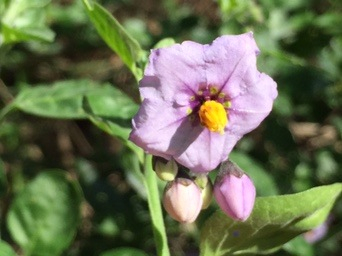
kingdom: Plantae
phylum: Tracheophyta
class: Magnoliopsida
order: Solanales
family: Solanaceae
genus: Solanum
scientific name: Solanum umbelliferum
